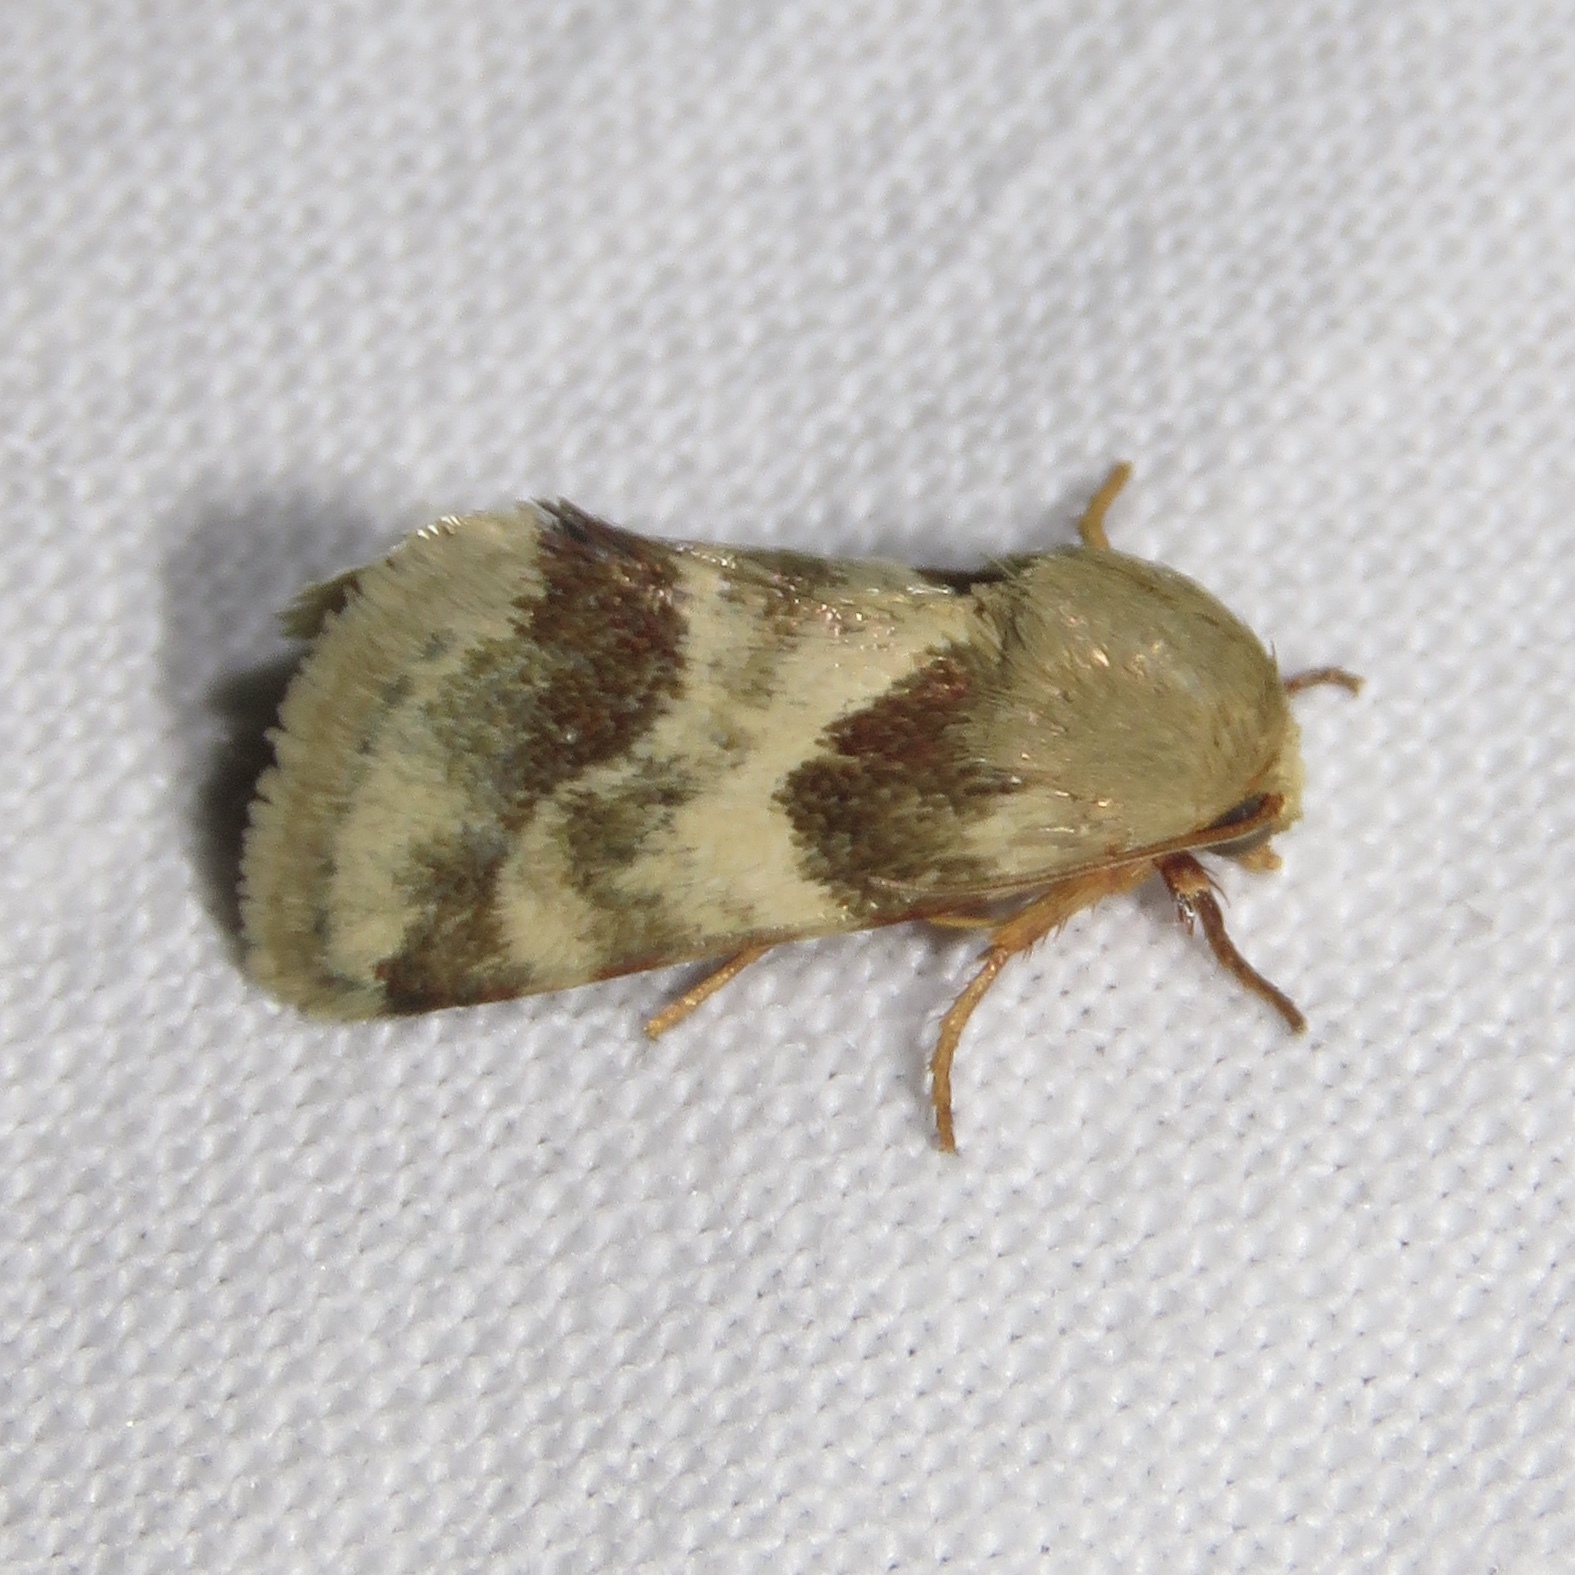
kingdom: Animalia
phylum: Arthropoda
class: Insecta
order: Lepidoptera
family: Noctuidae
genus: Schinia
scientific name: Schinia lynx
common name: Lynx flower moth
